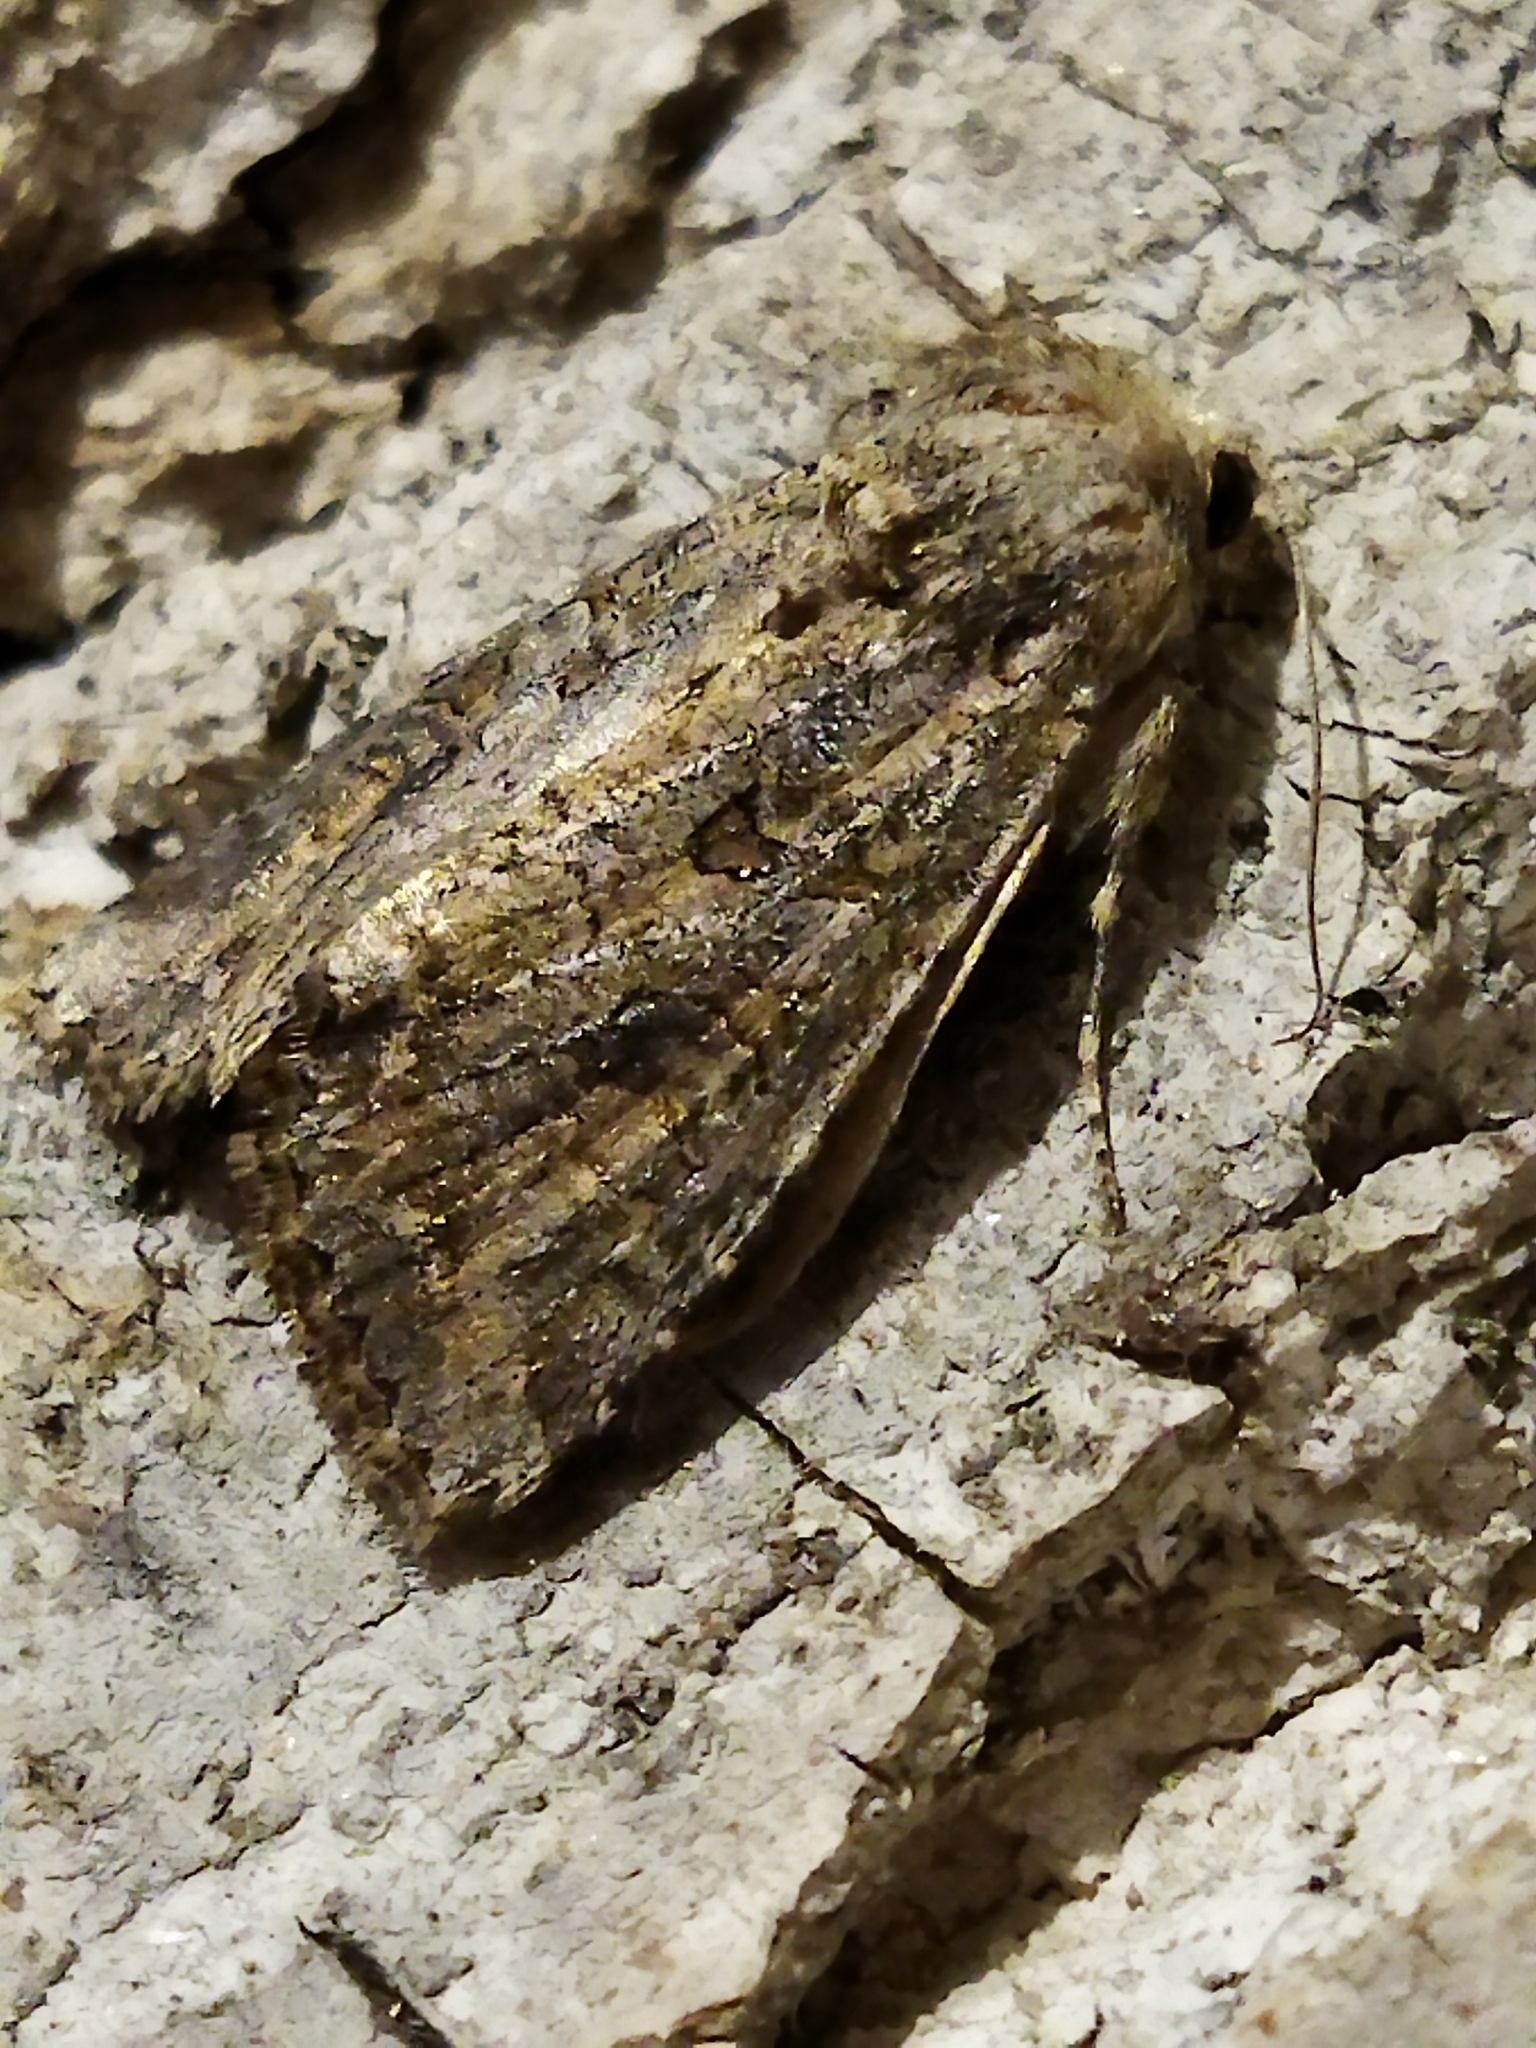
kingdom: Animalia
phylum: Arthropoda
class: Insecta
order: Lepidoptera
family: Noctuidae
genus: Anarta
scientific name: Anarta trifolii
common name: Clover cutworm moth
